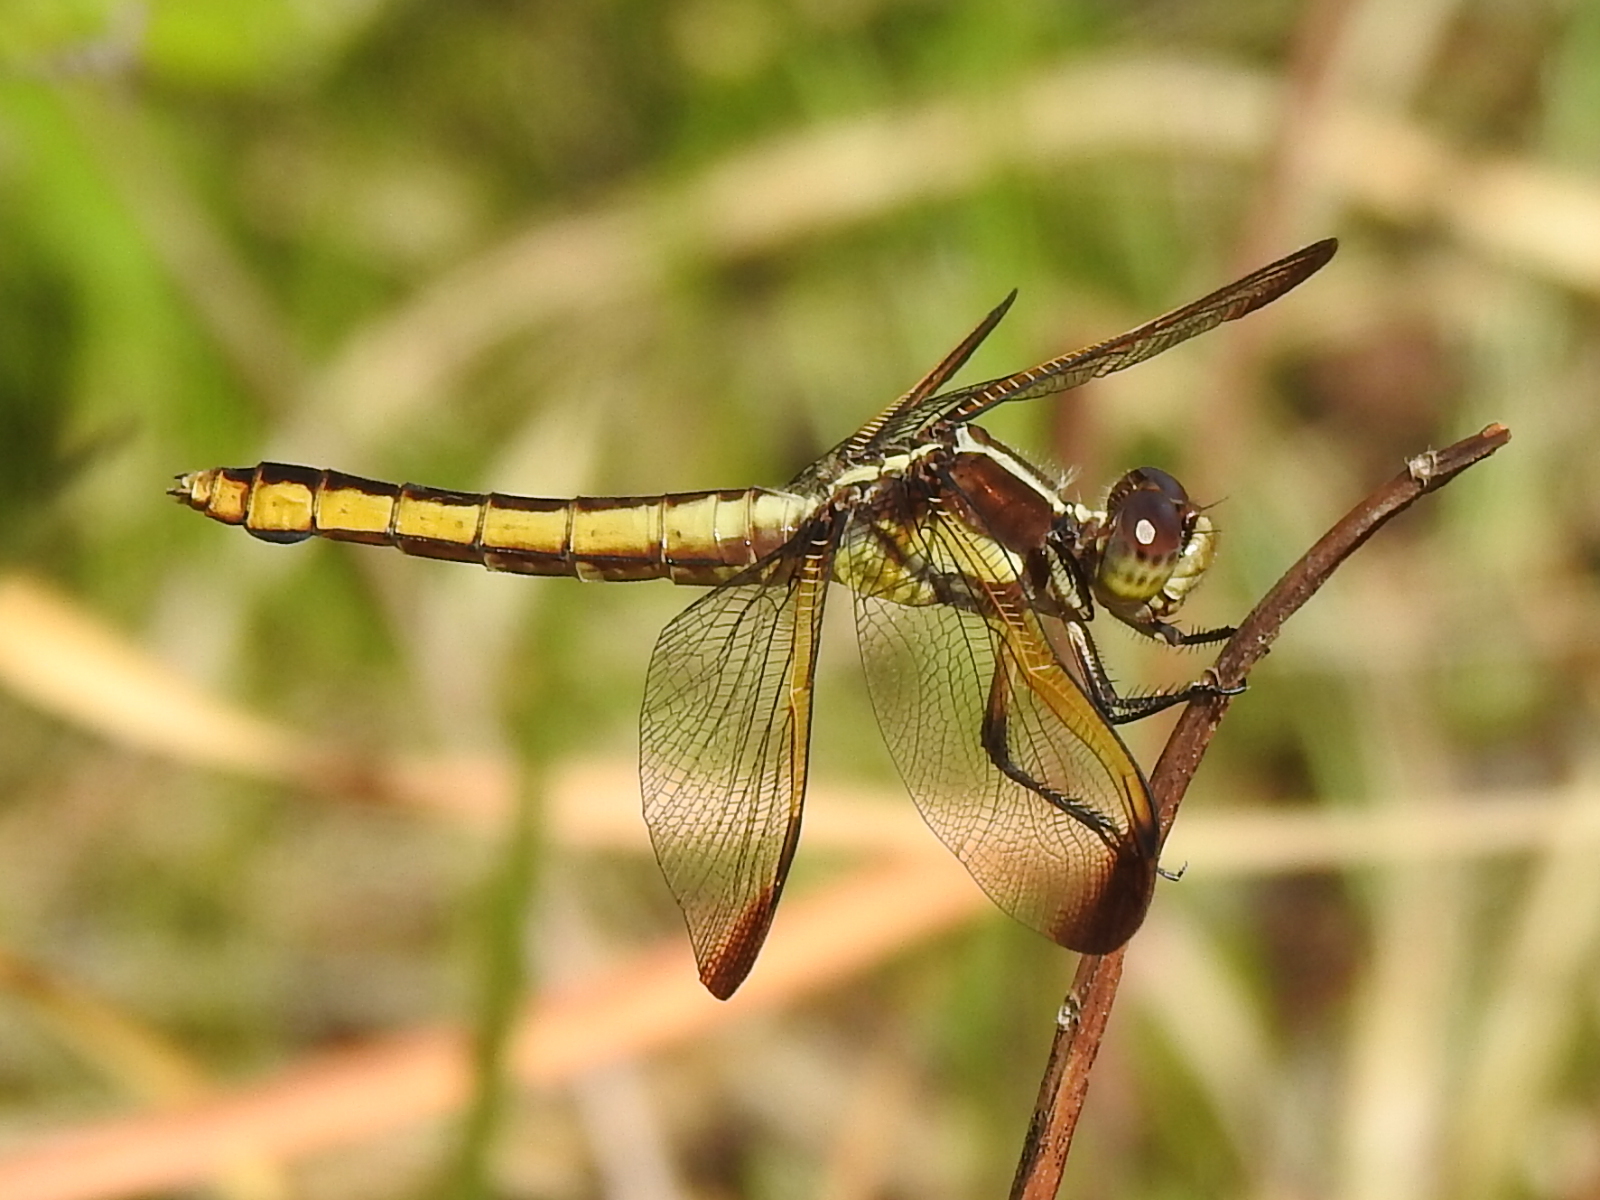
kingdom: Animalia
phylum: Arthropoda
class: Insecta
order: Odonata
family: Libellulidae
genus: Libellula
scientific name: Libellula flavida
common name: Yellow-sided skimmer
